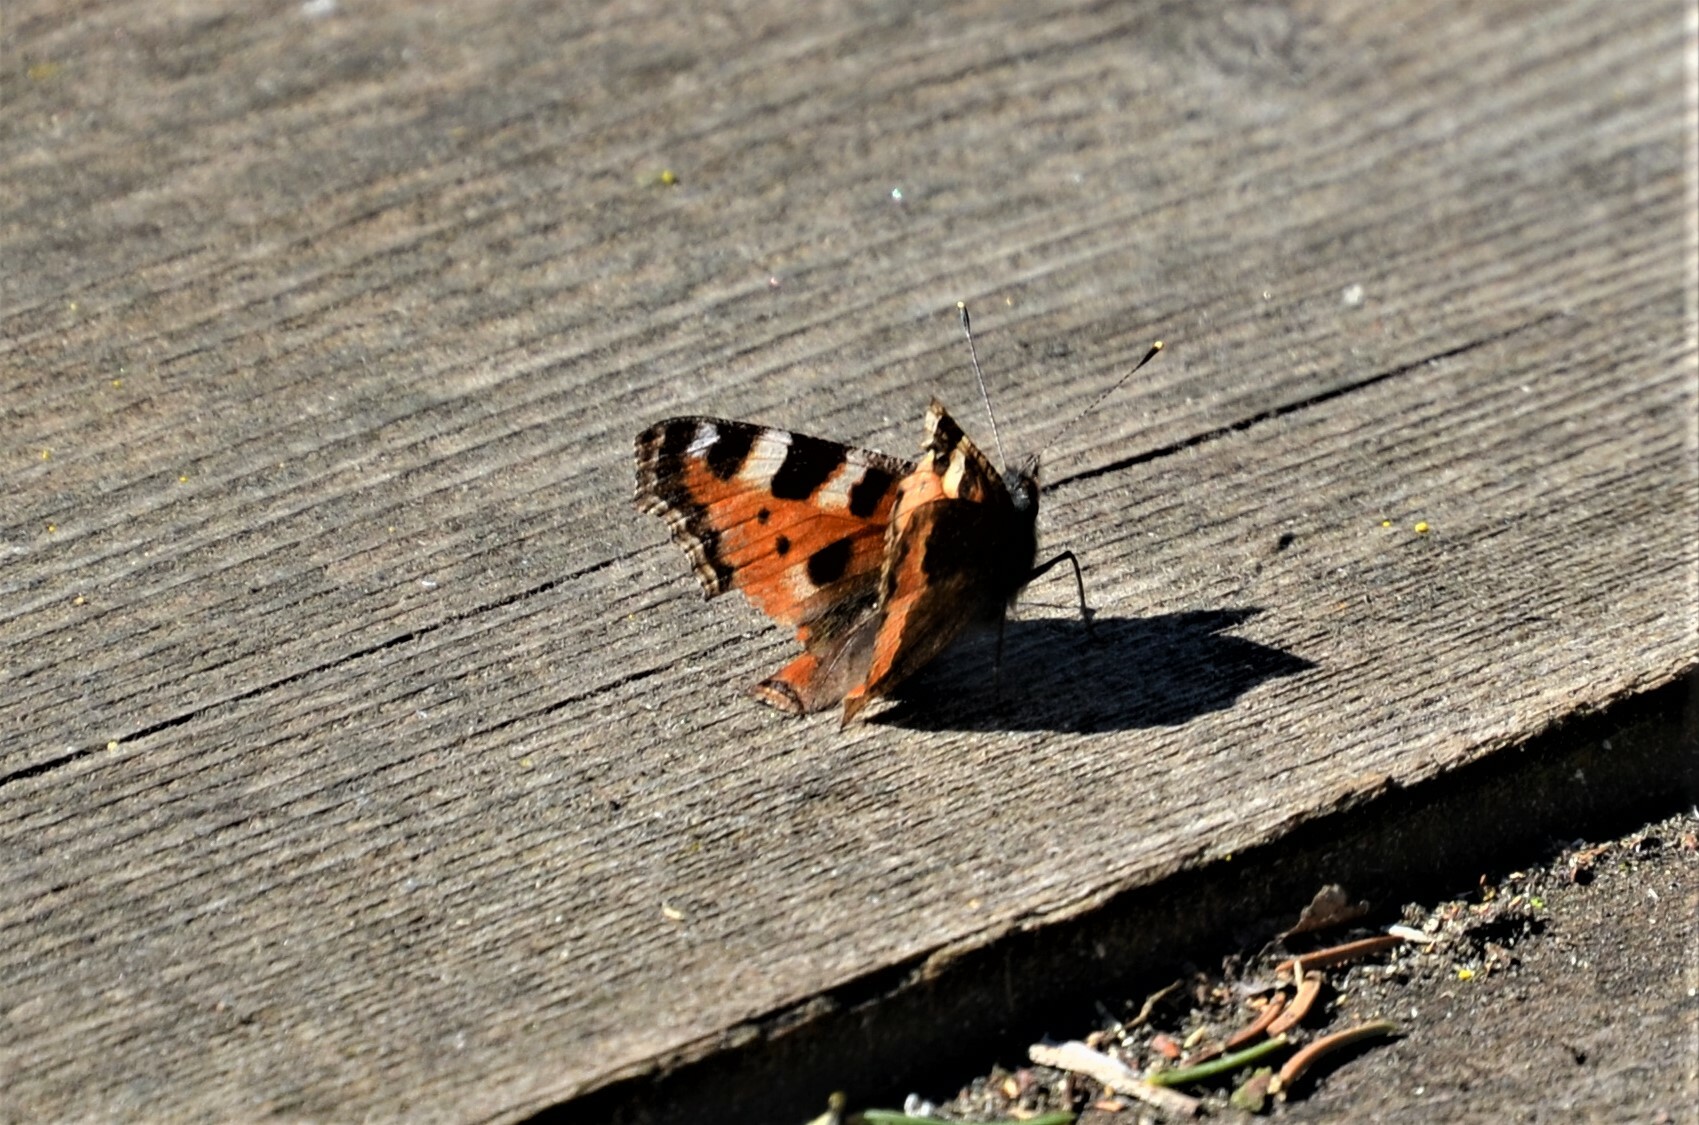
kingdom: Animalia
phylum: Arthropoda
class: Insecta
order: Lepidoptera
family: Nymphalidae
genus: Aglais
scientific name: Aglais urticae
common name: Small tortoiseshell
